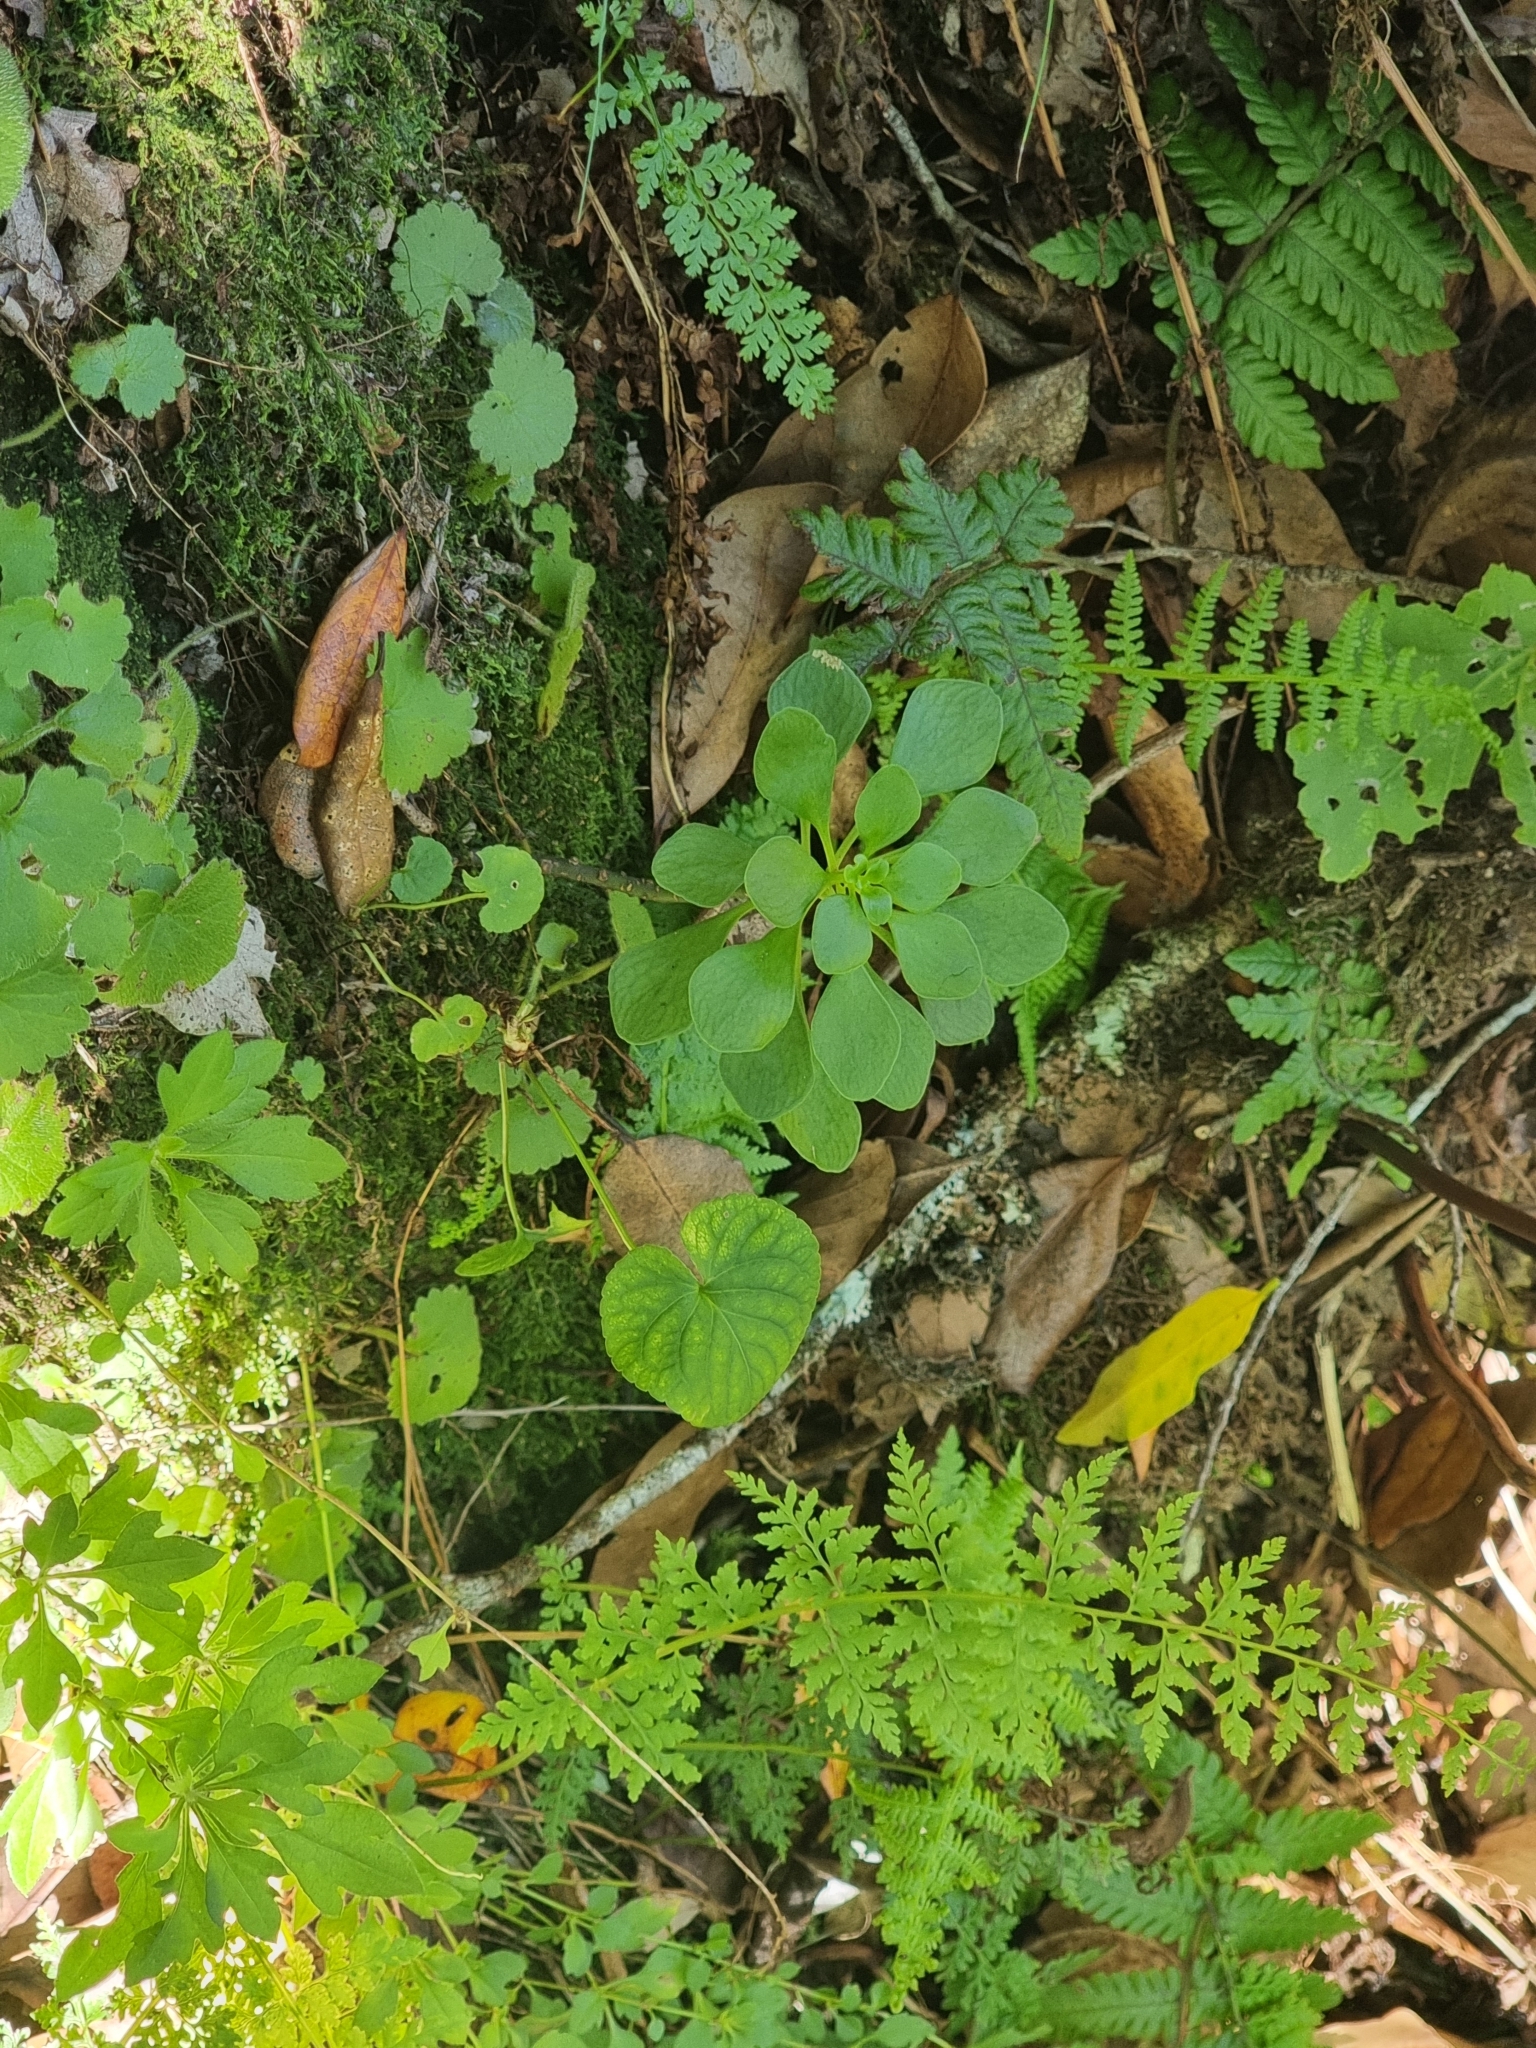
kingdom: Plantae
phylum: Tracheophyta
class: Magnoliopsida
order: Saxifragales
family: Crassulaceae
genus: Aichryson
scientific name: Aichryson divaricatum
